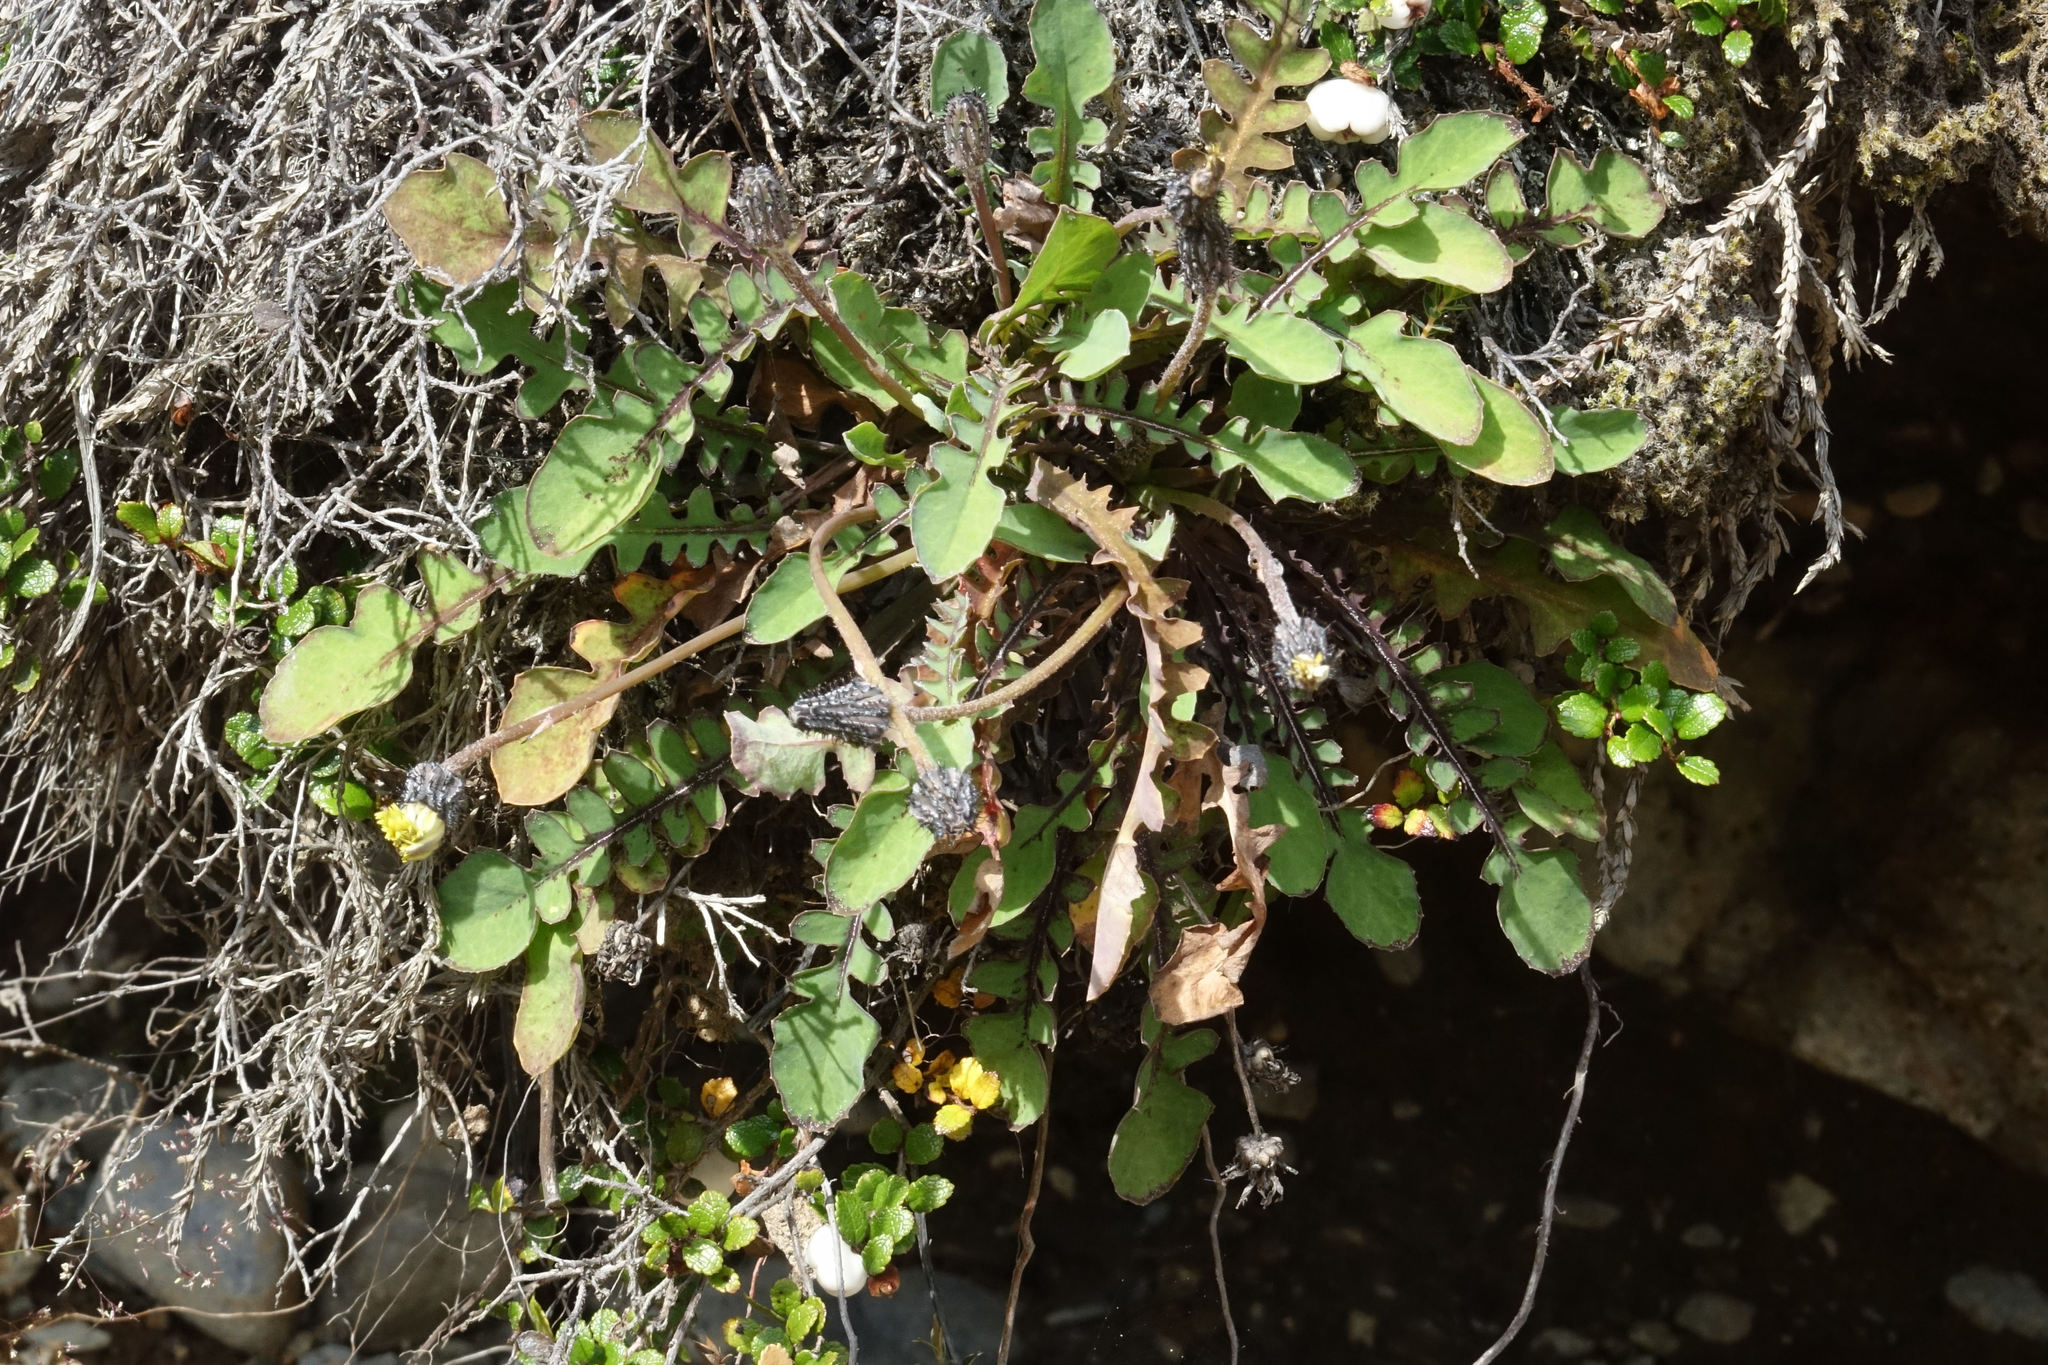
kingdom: Plantae
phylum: Tracheophyta
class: Magnoliopsida
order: Asterales
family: Asteraceae
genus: Sonchus
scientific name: Sonchus novae-zelandiae
